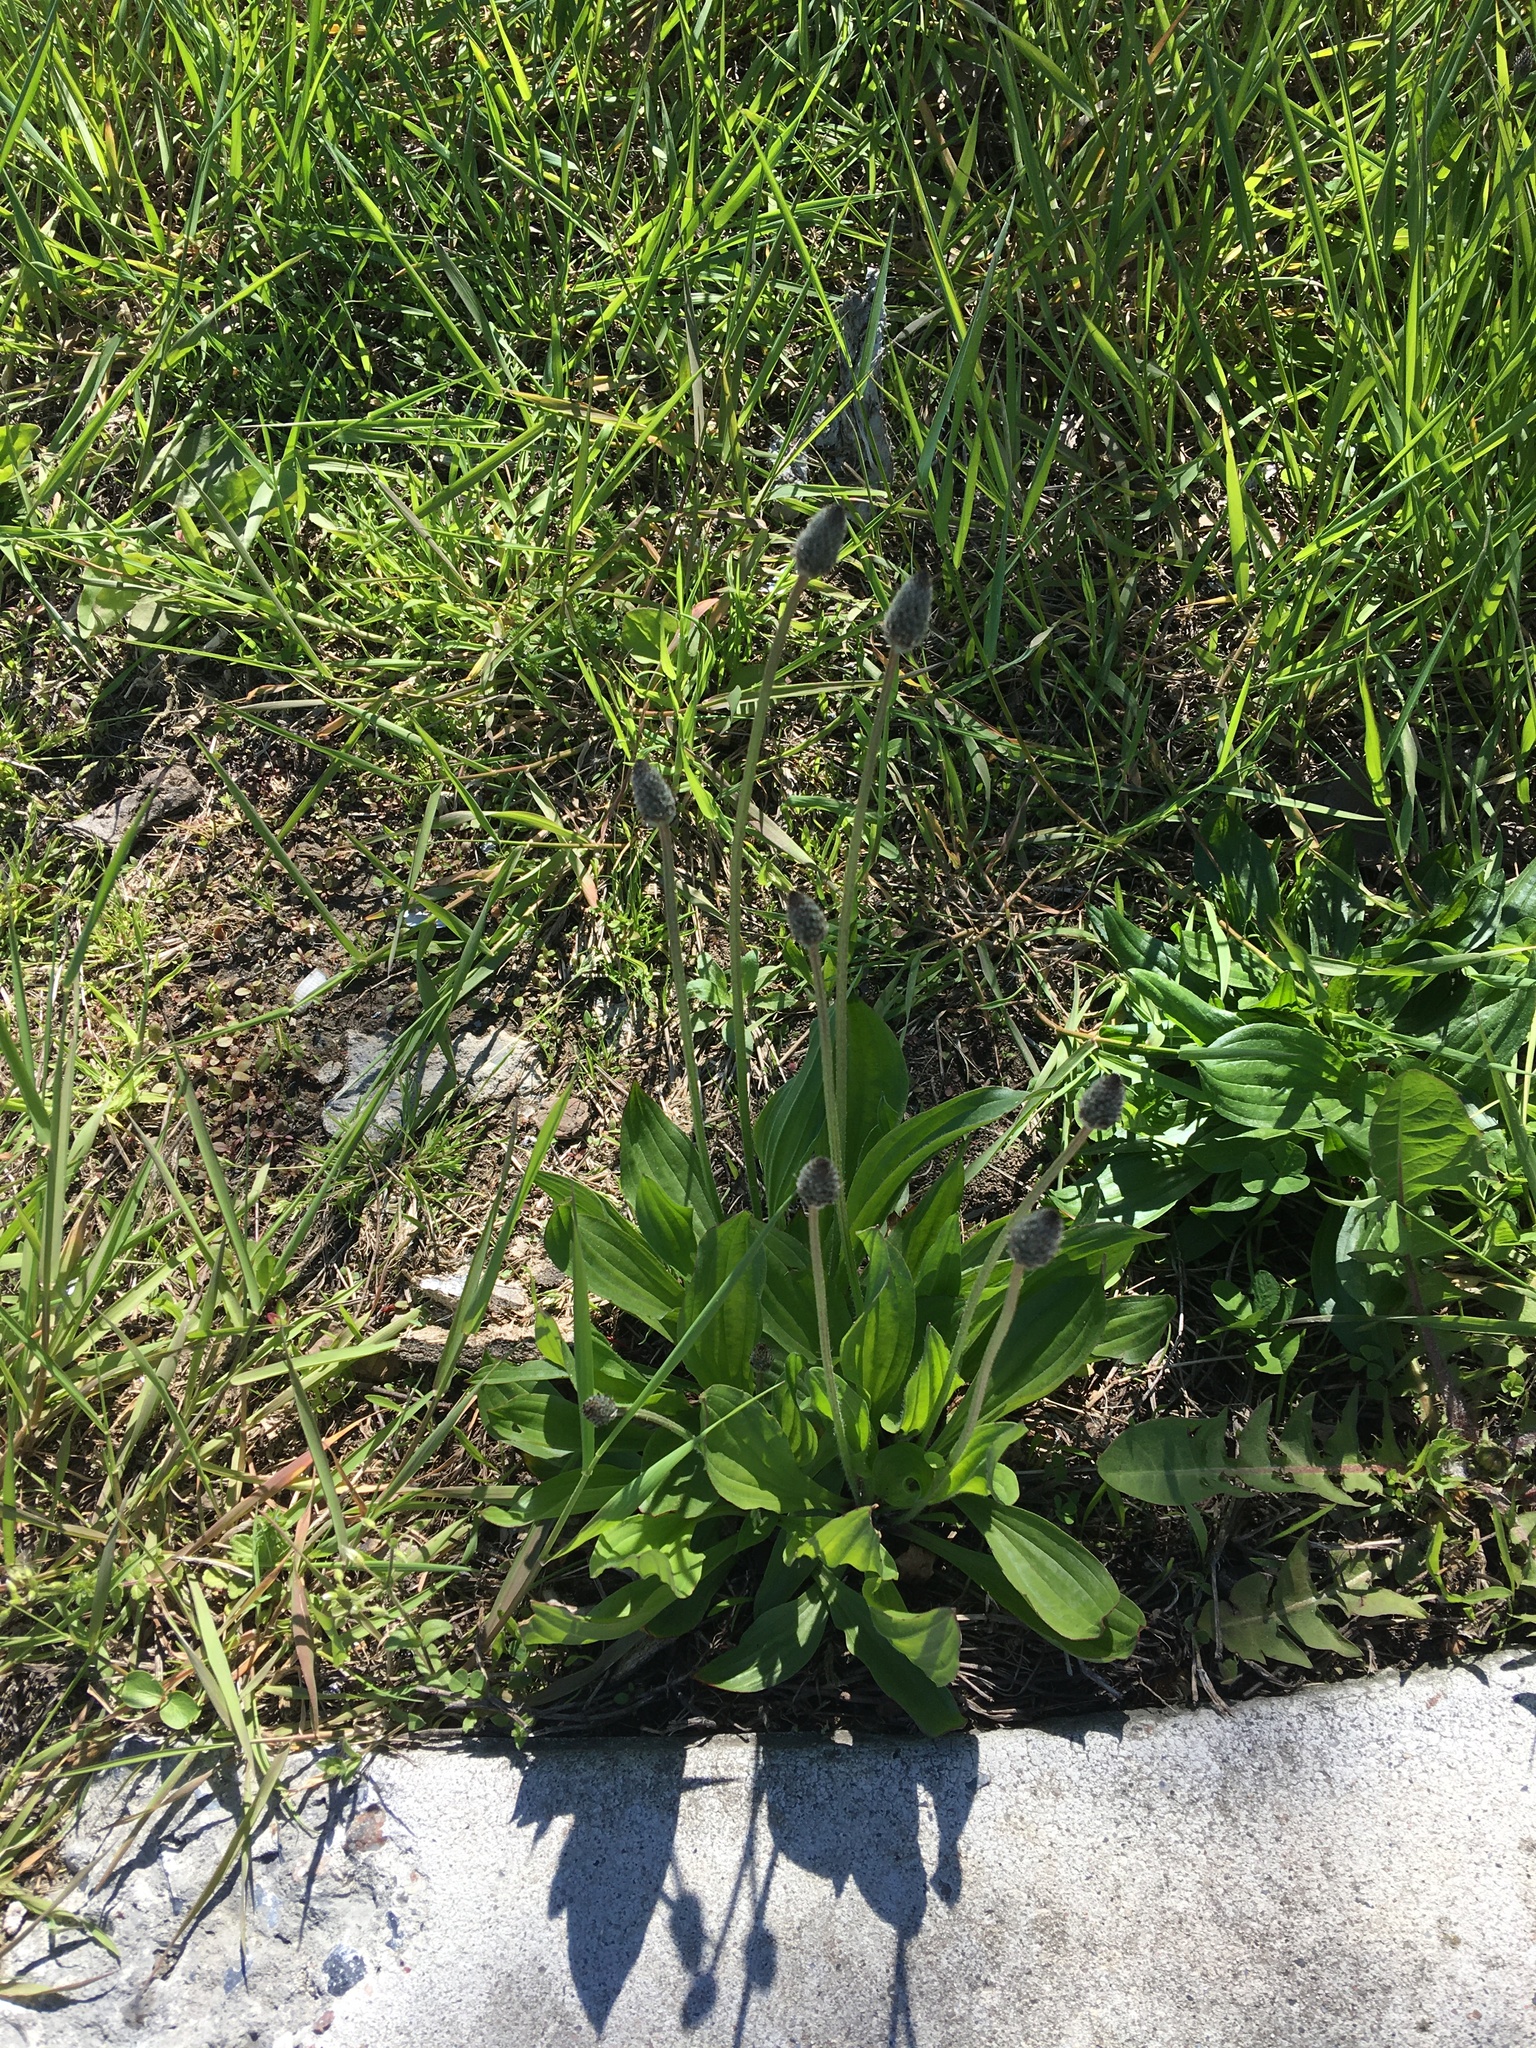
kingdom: Plantae
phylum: Tracheophyta
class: Magnoliopsida
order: Lamiales
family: Plantaginaceae
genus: Plantago
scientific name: Plantago lanceolata
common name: Ribwort plantain
